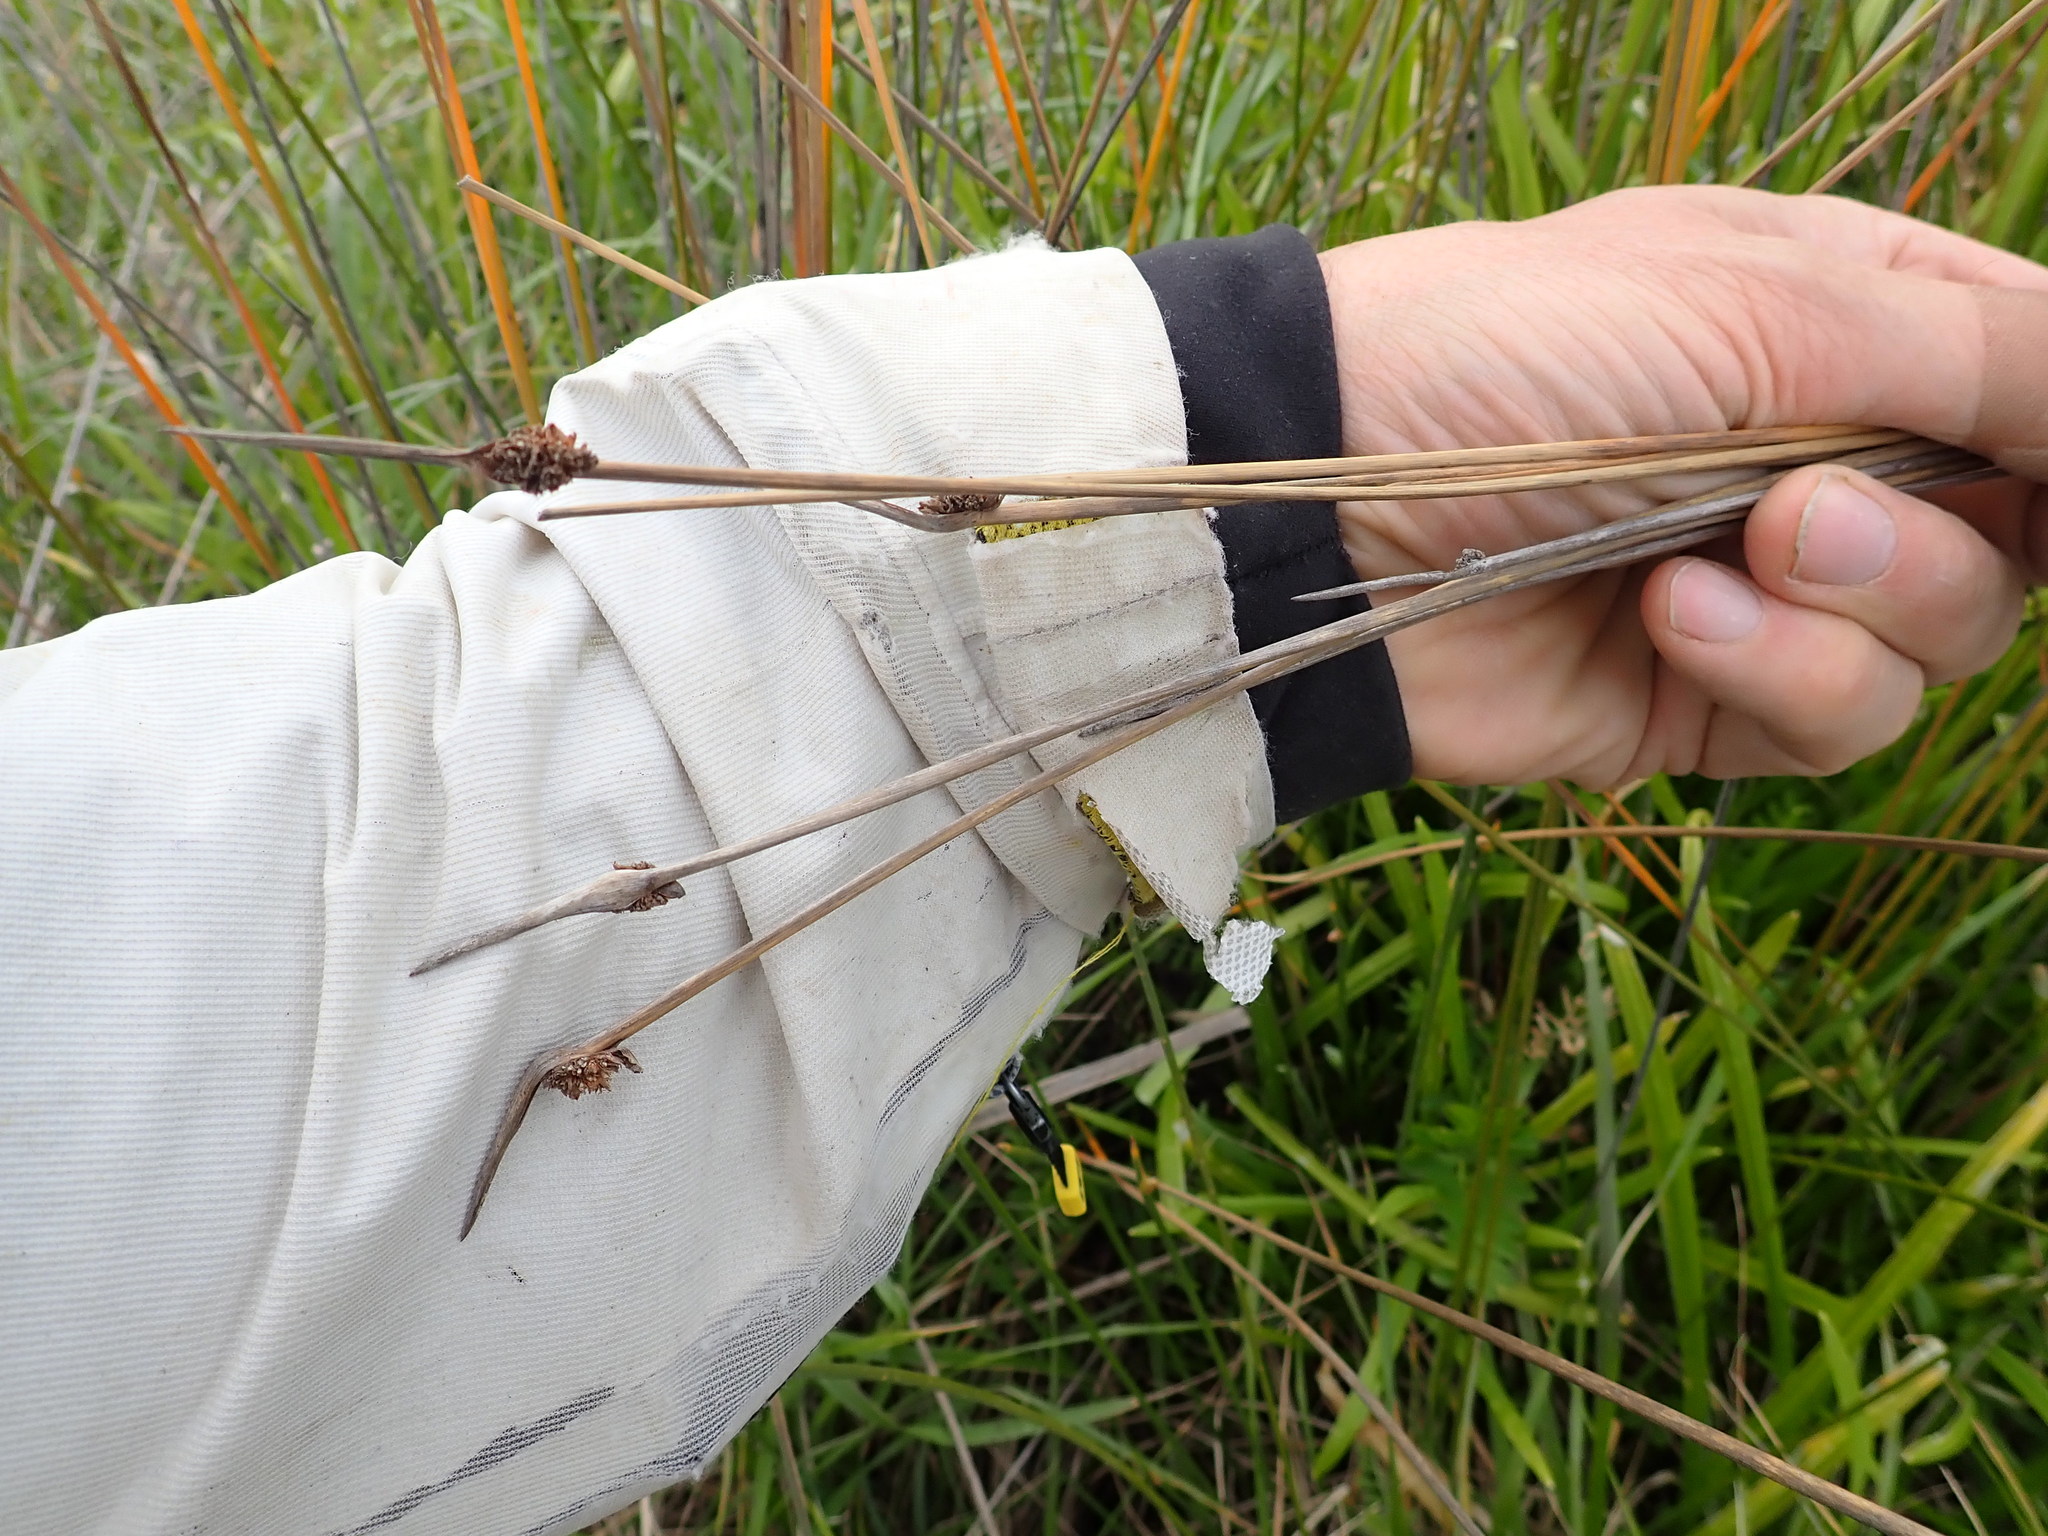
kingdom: Plantae
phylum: Tracheophyta
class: Liliopsida
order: Poales
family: Cyperaceae
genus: Ficinia
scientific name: Ficinia nodosa
